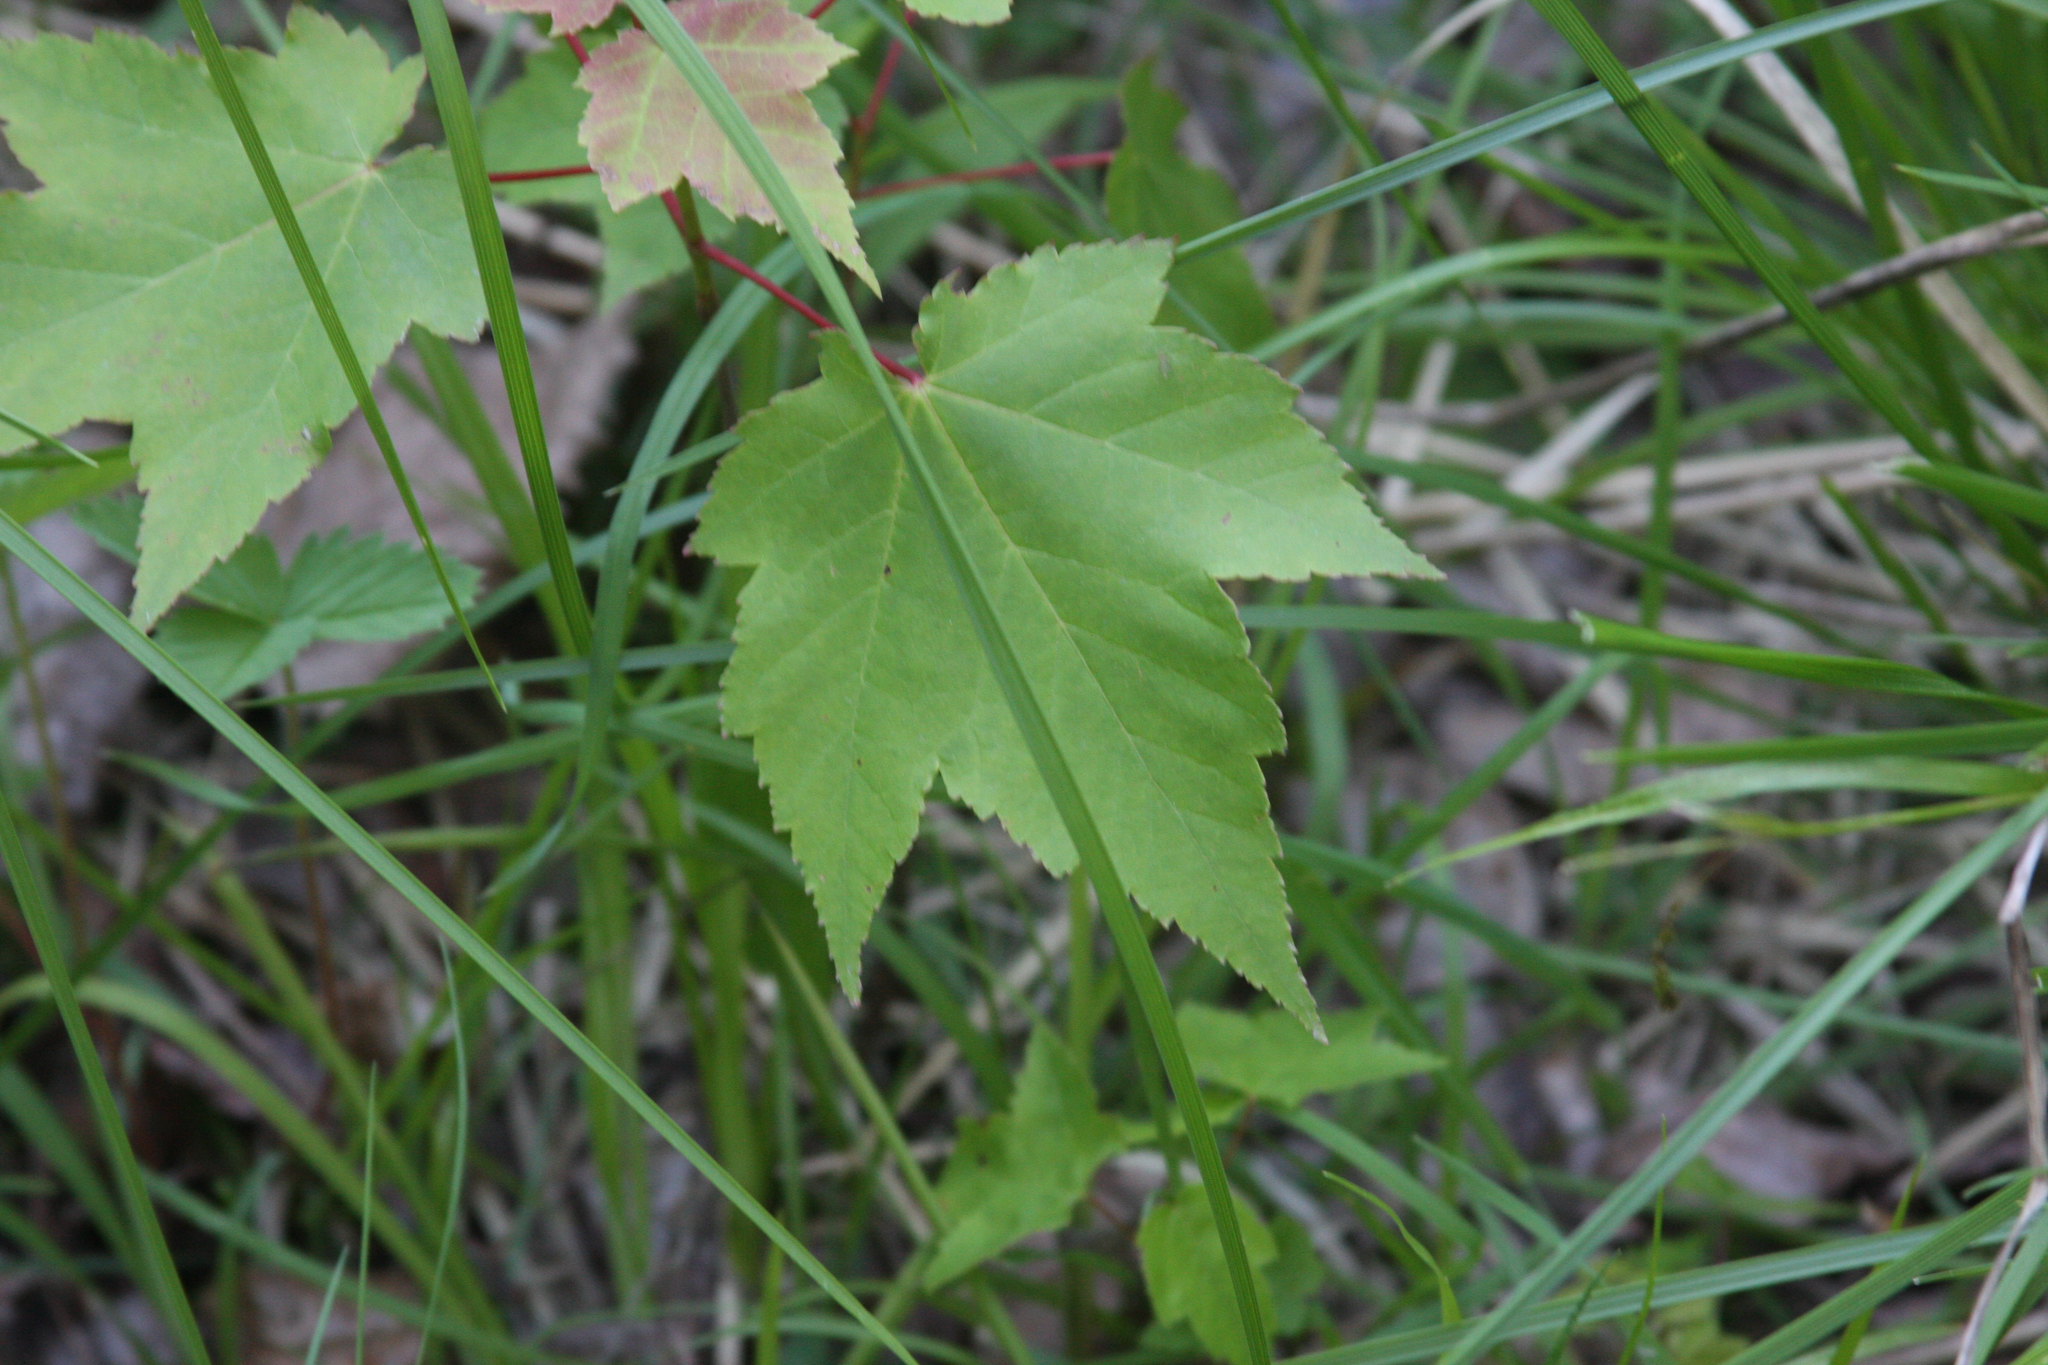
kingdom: Plantae
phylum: Tracheophyta
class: Magnoliopsida
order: Sapindales
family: Sapindaceae
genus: Acer
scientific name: Acer rubrum
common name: Red maple
